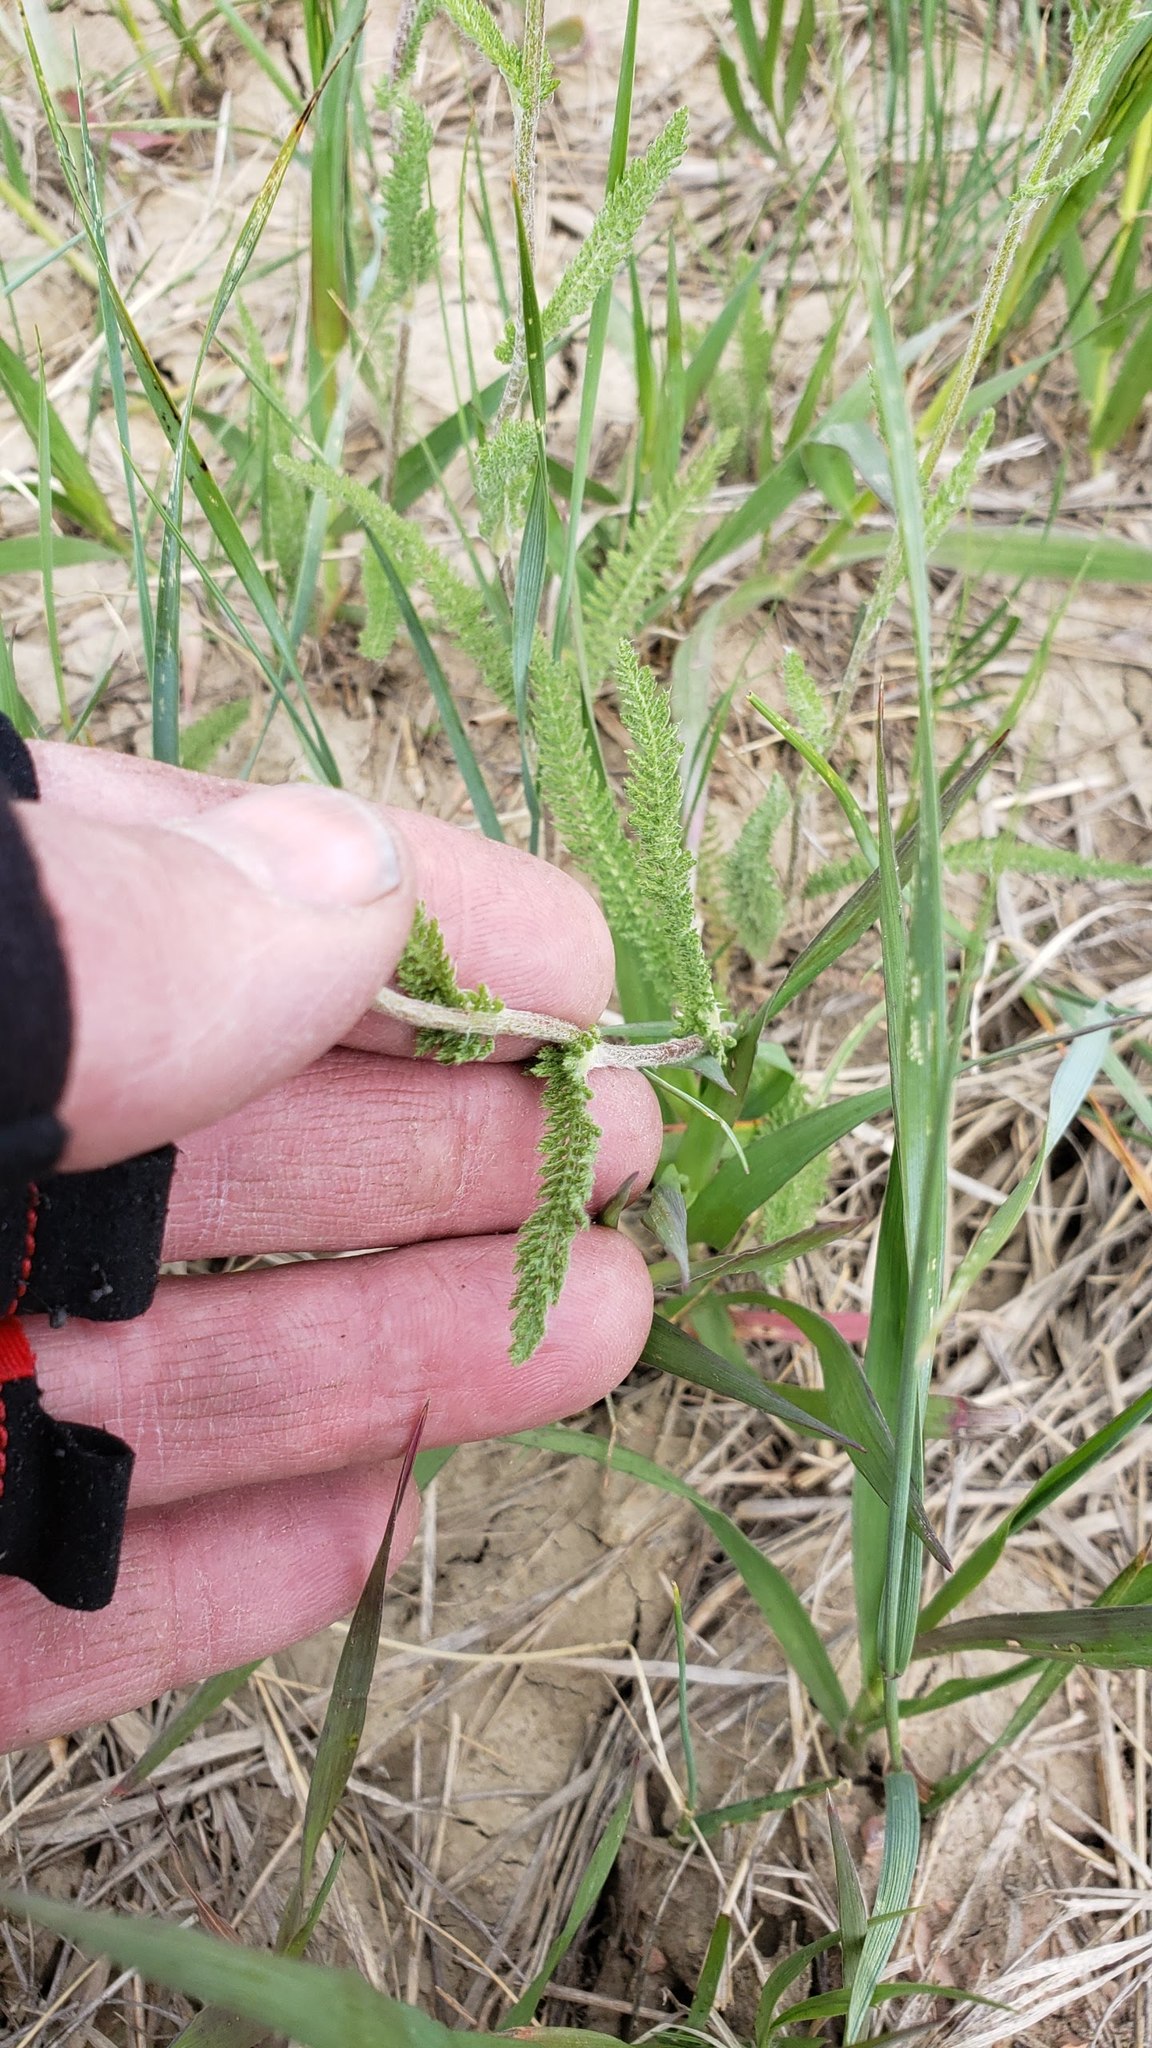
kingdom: Plantae
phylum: Tracheophyta
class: Magnoliopsida
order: Asterales
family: Asteraceae
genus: Achillea
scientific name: Achillea millefolium
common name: Yarrow
